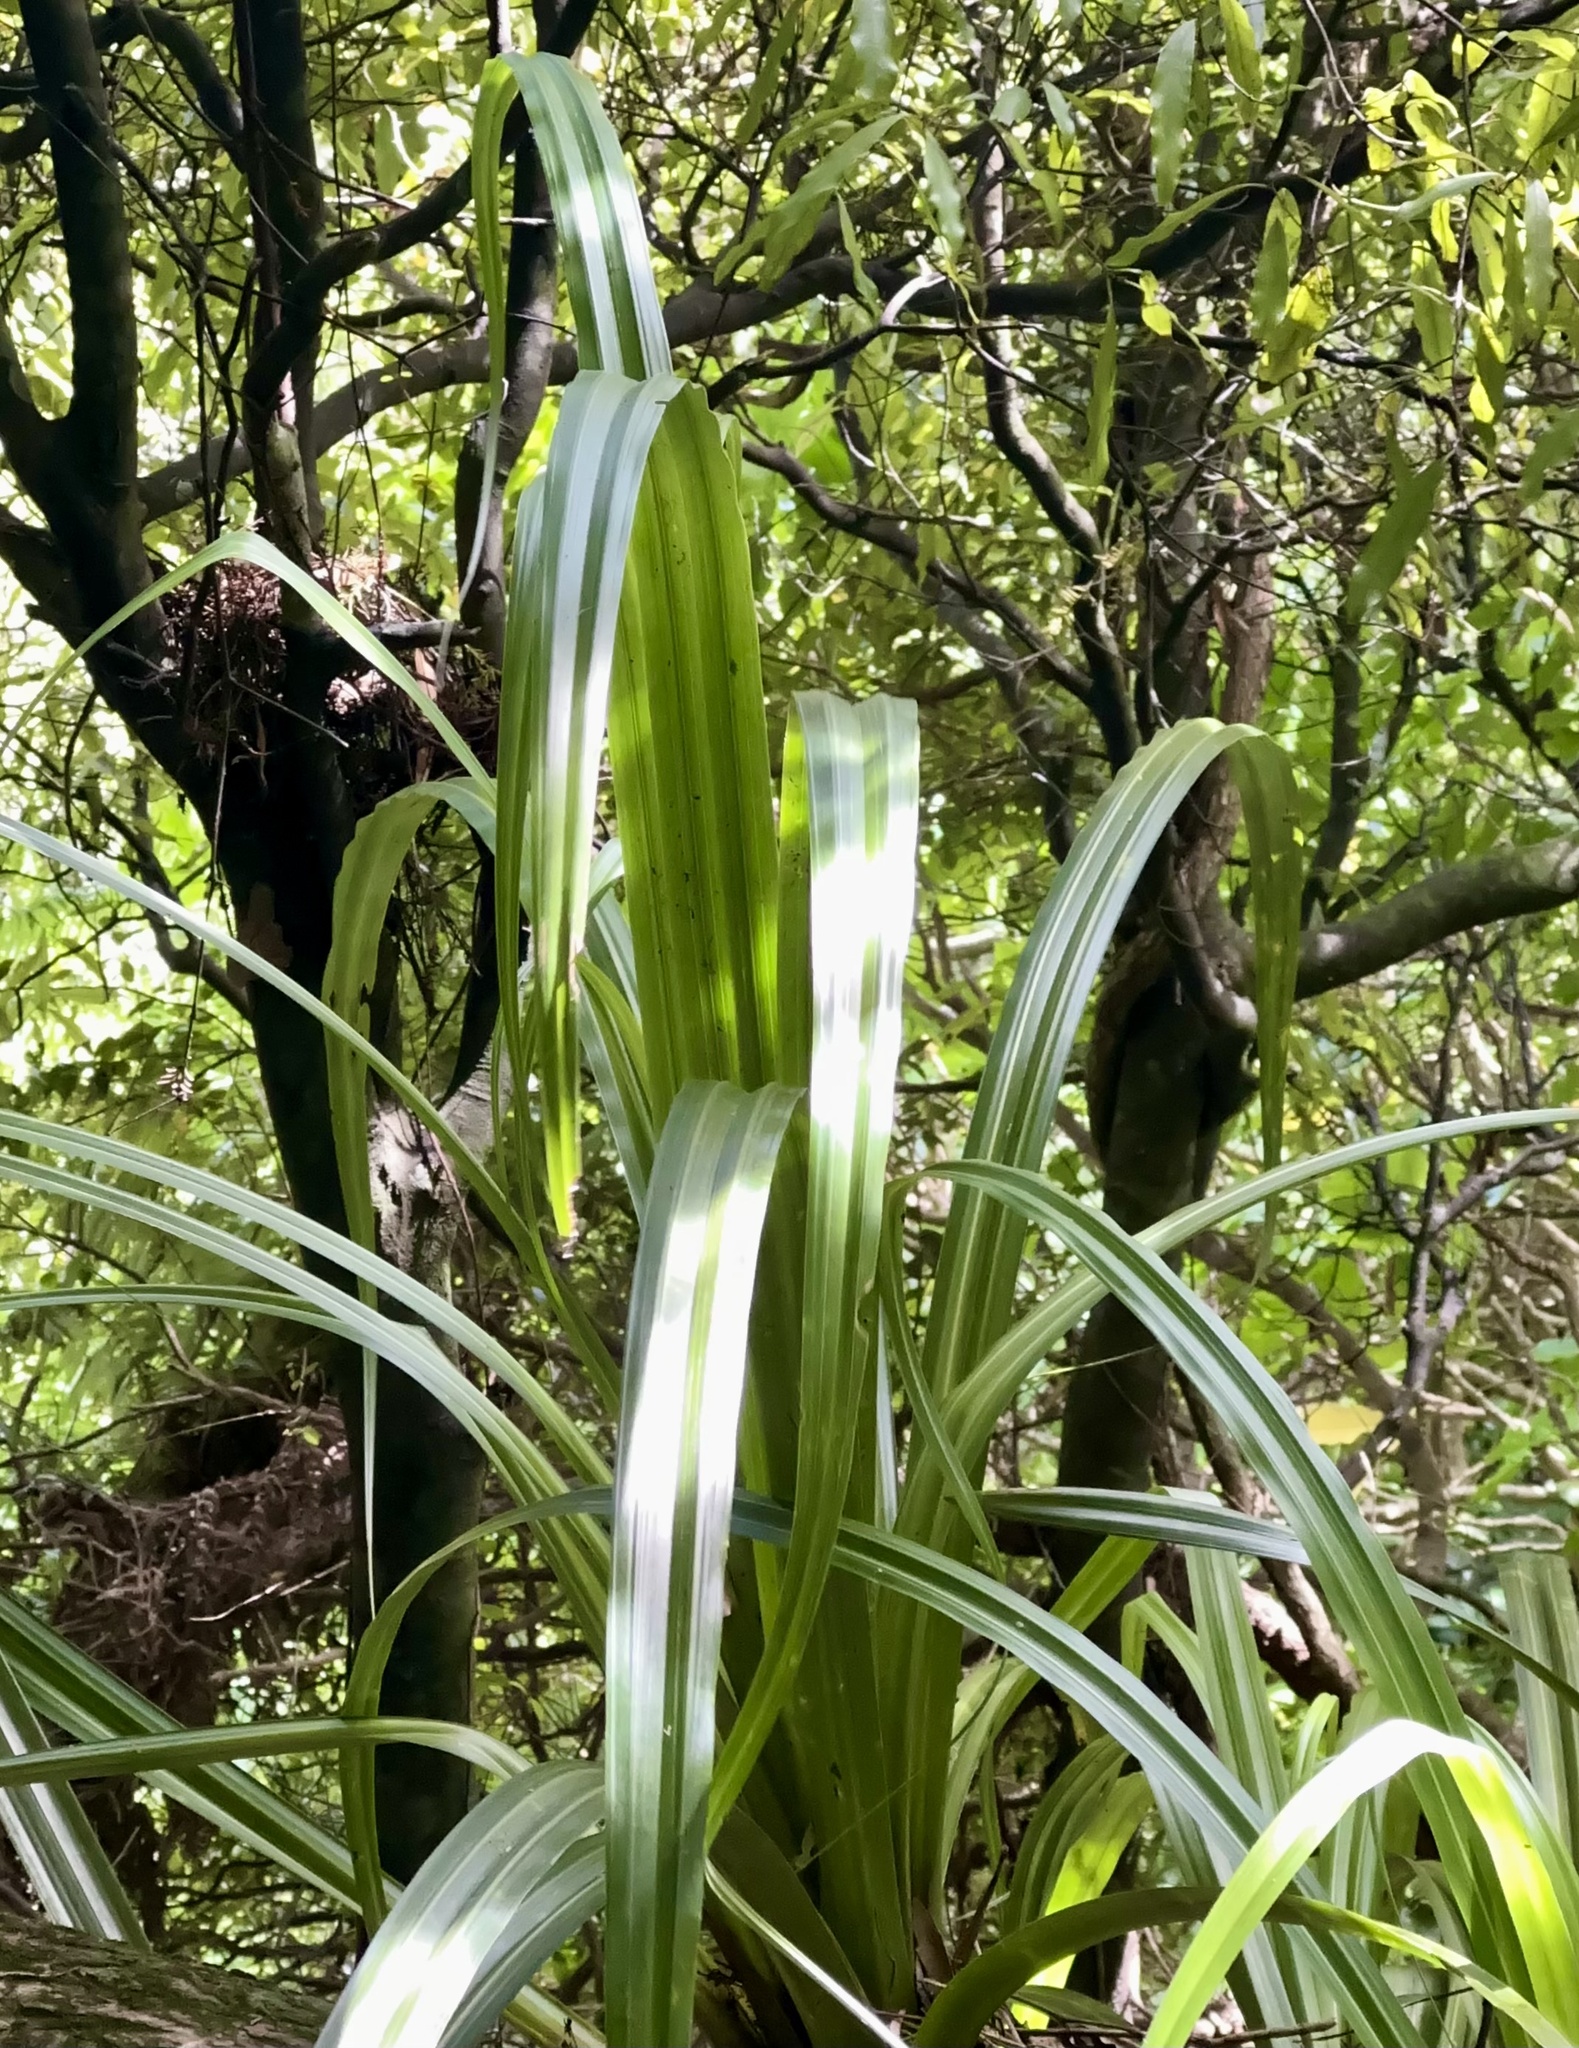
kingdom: Plantae
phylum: Tracheophyta
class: Liliopsida
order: Asparagales
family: Asteliaceae
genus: Astelia
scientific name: Astelia hastata
